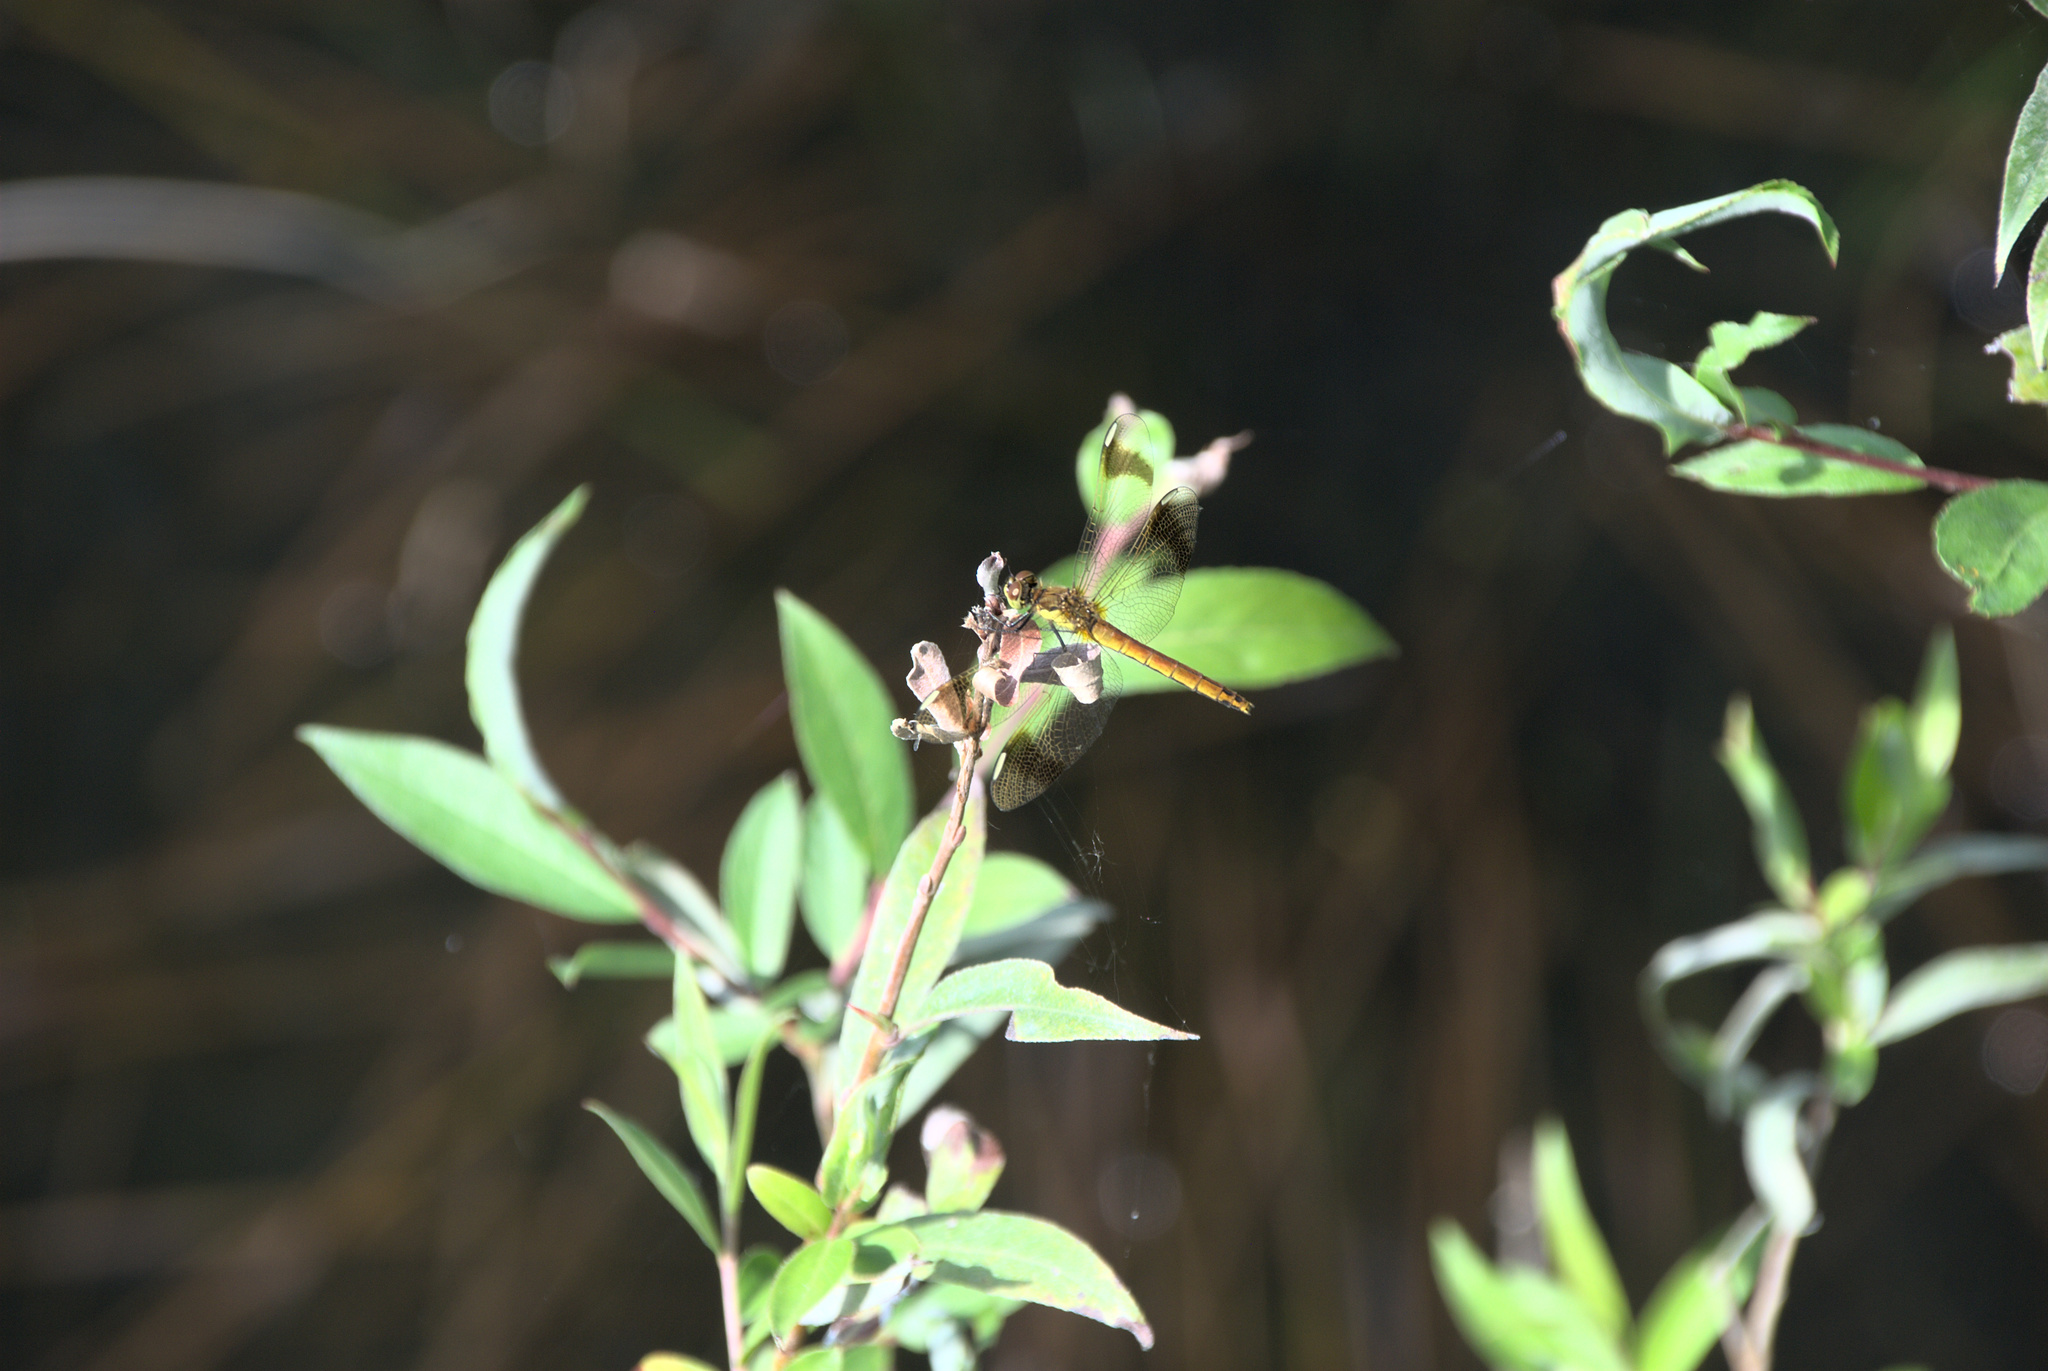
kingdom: Animalia
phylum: Arthropoda
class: Insecta
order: Odonata
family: Libellulidae
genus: Sympetrum
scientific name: Sympetrum pedemontanum
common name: Banded darter
